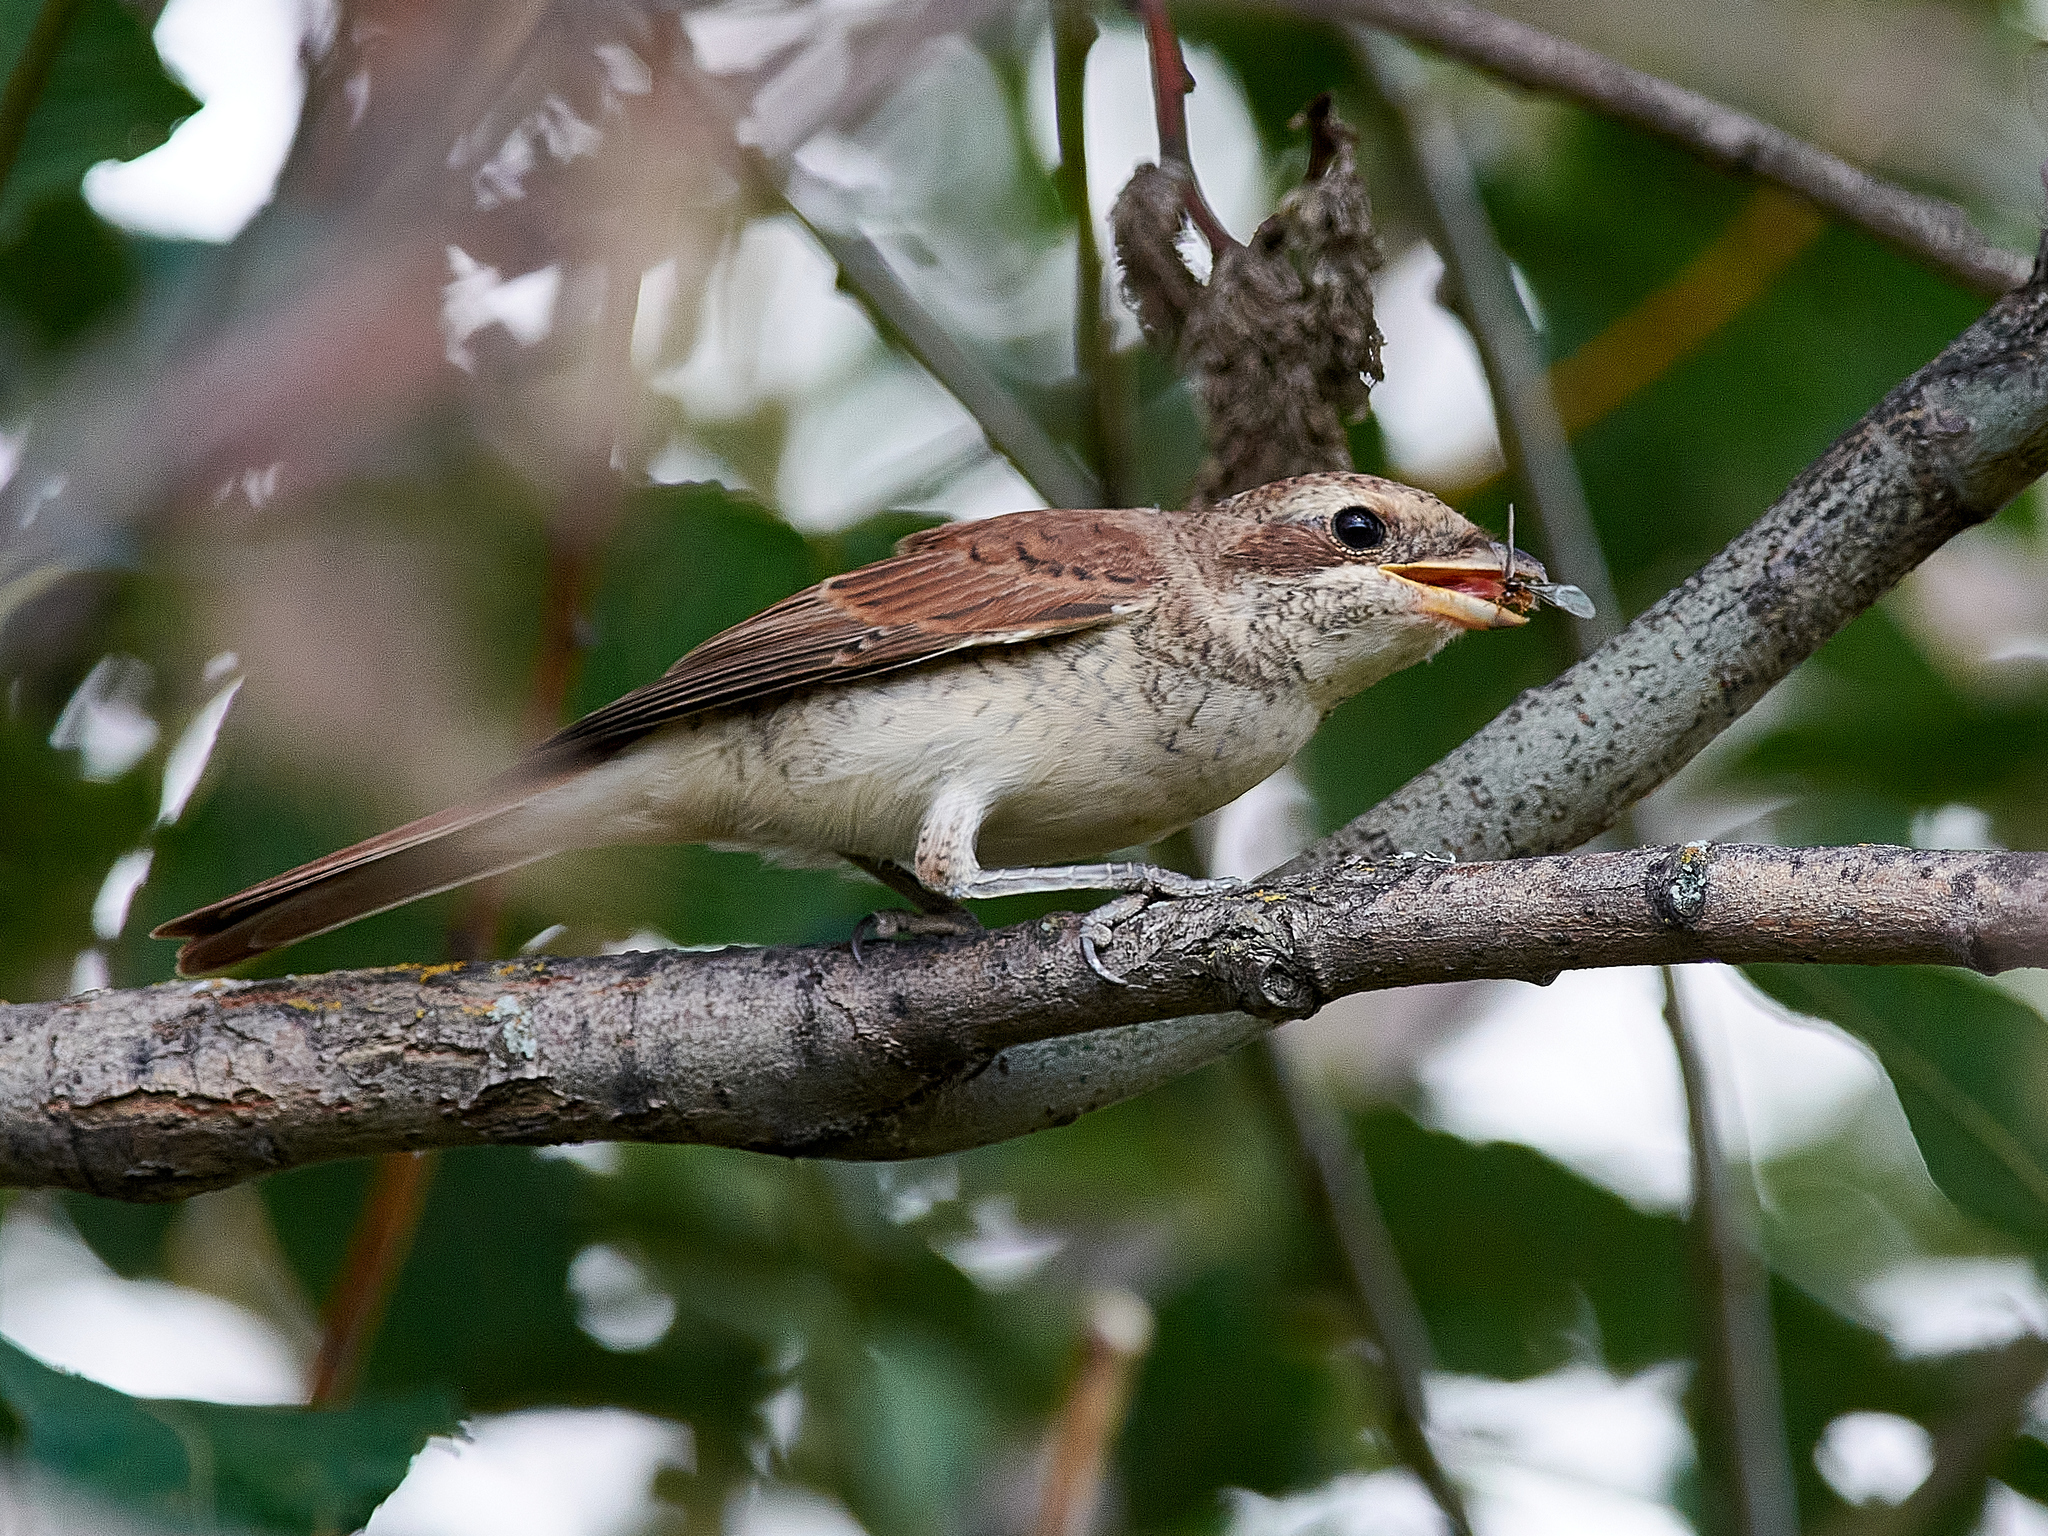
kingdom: Animalia
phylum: Chordata
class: Aves
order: Passeriformes
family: Laniidae
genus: Lanius
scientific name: Lanius collurio
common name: Red-backed shrike
